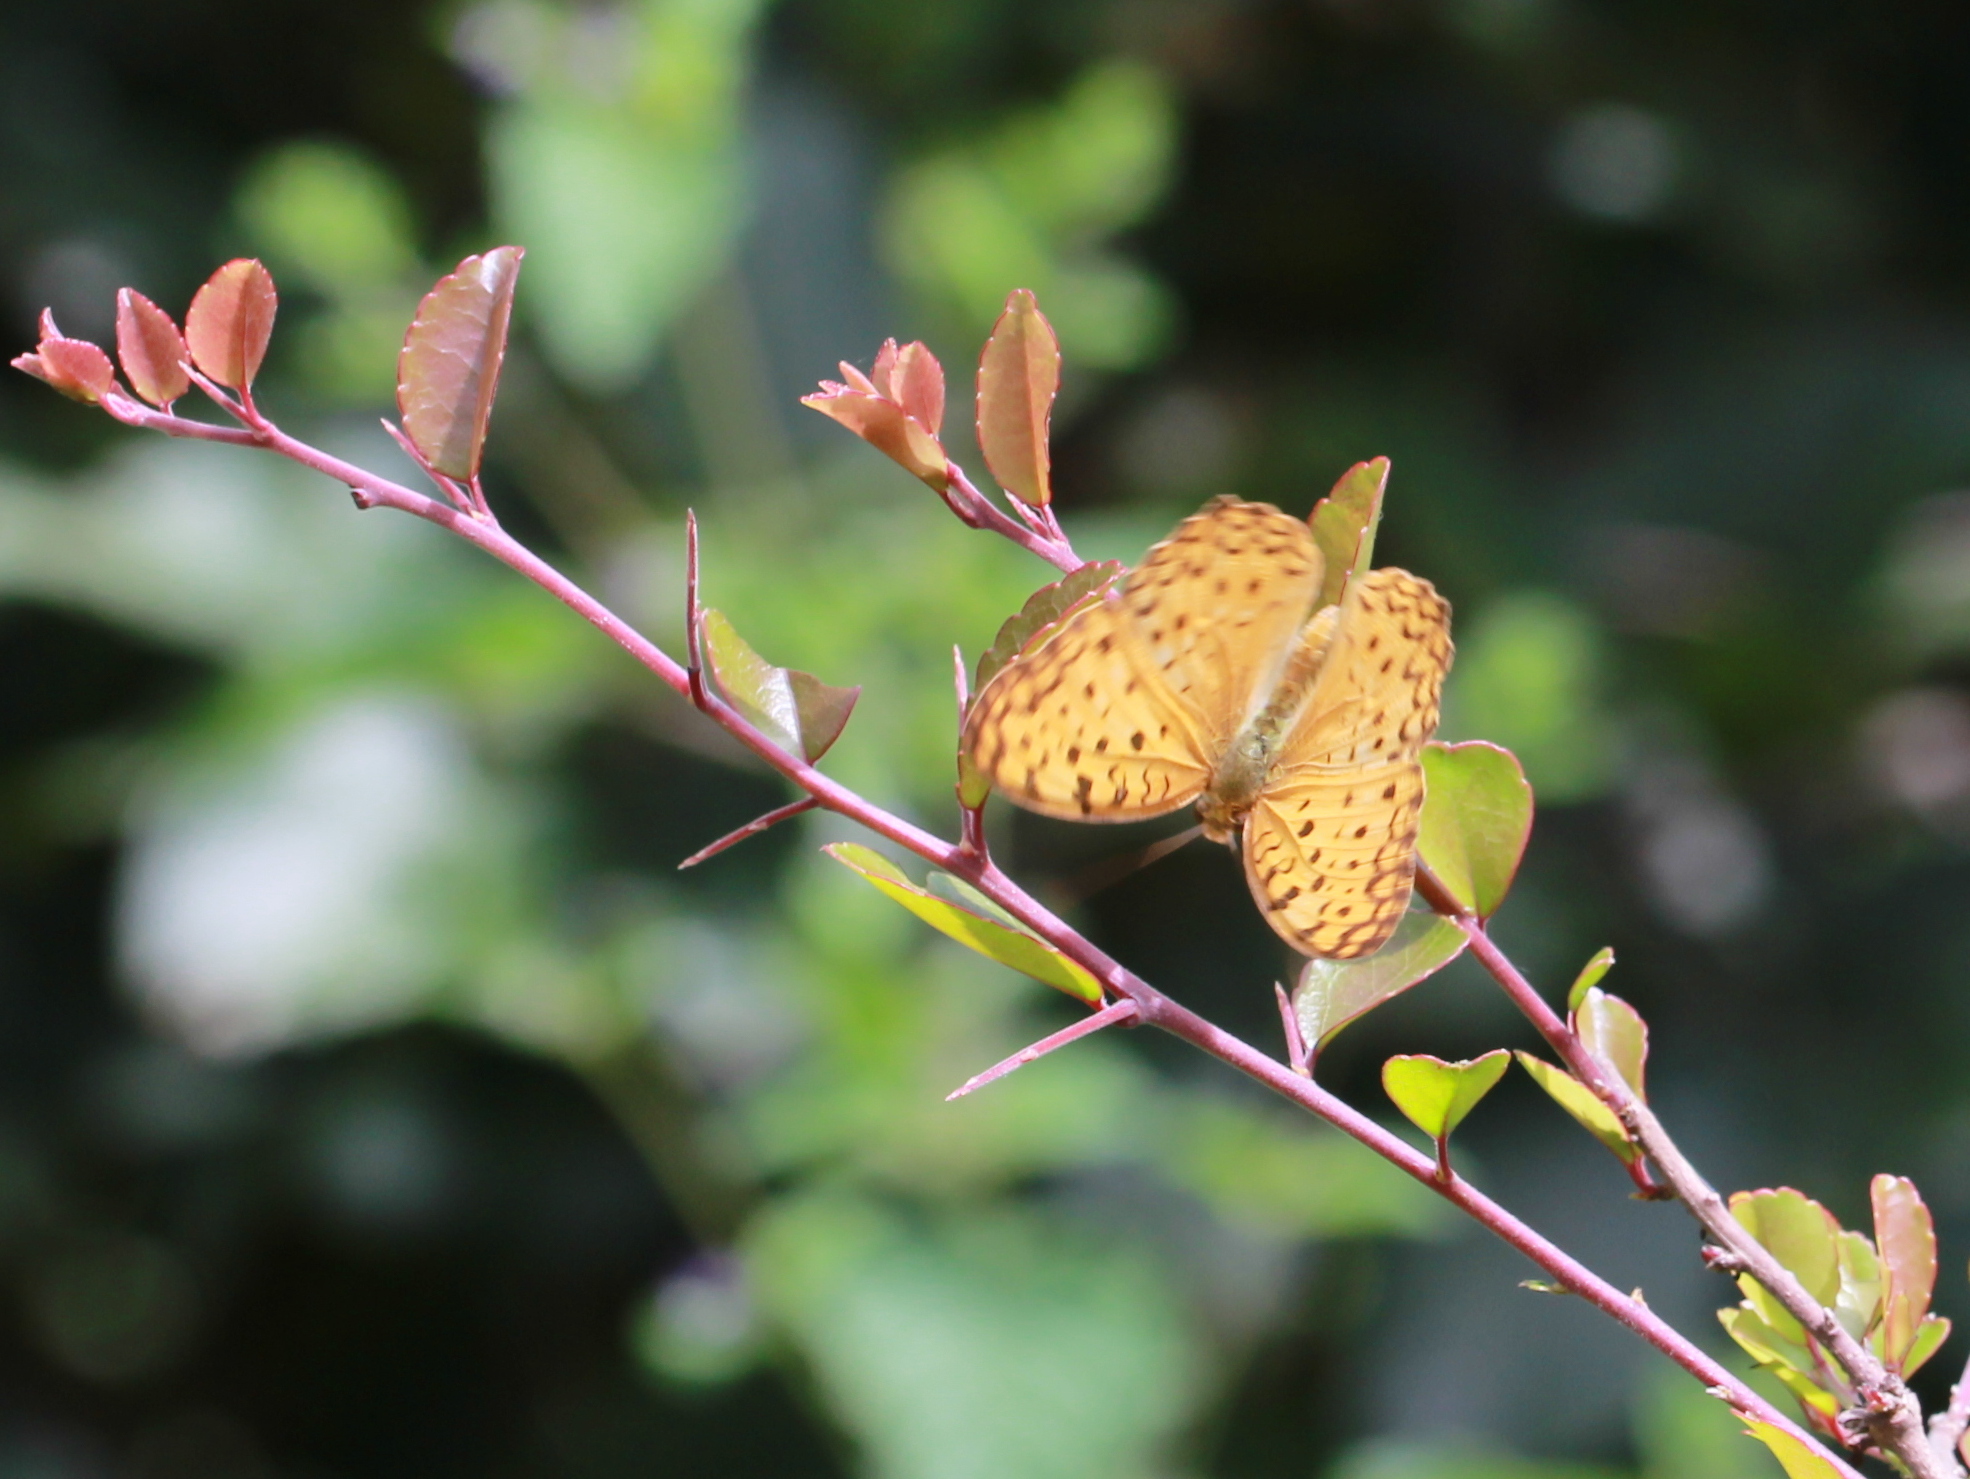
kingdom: Animalia
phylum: Arthropoda
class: Insecta
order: Lepidoptera
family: Nymphalidae
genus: Phalanta
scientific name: Phalanta phalantha
